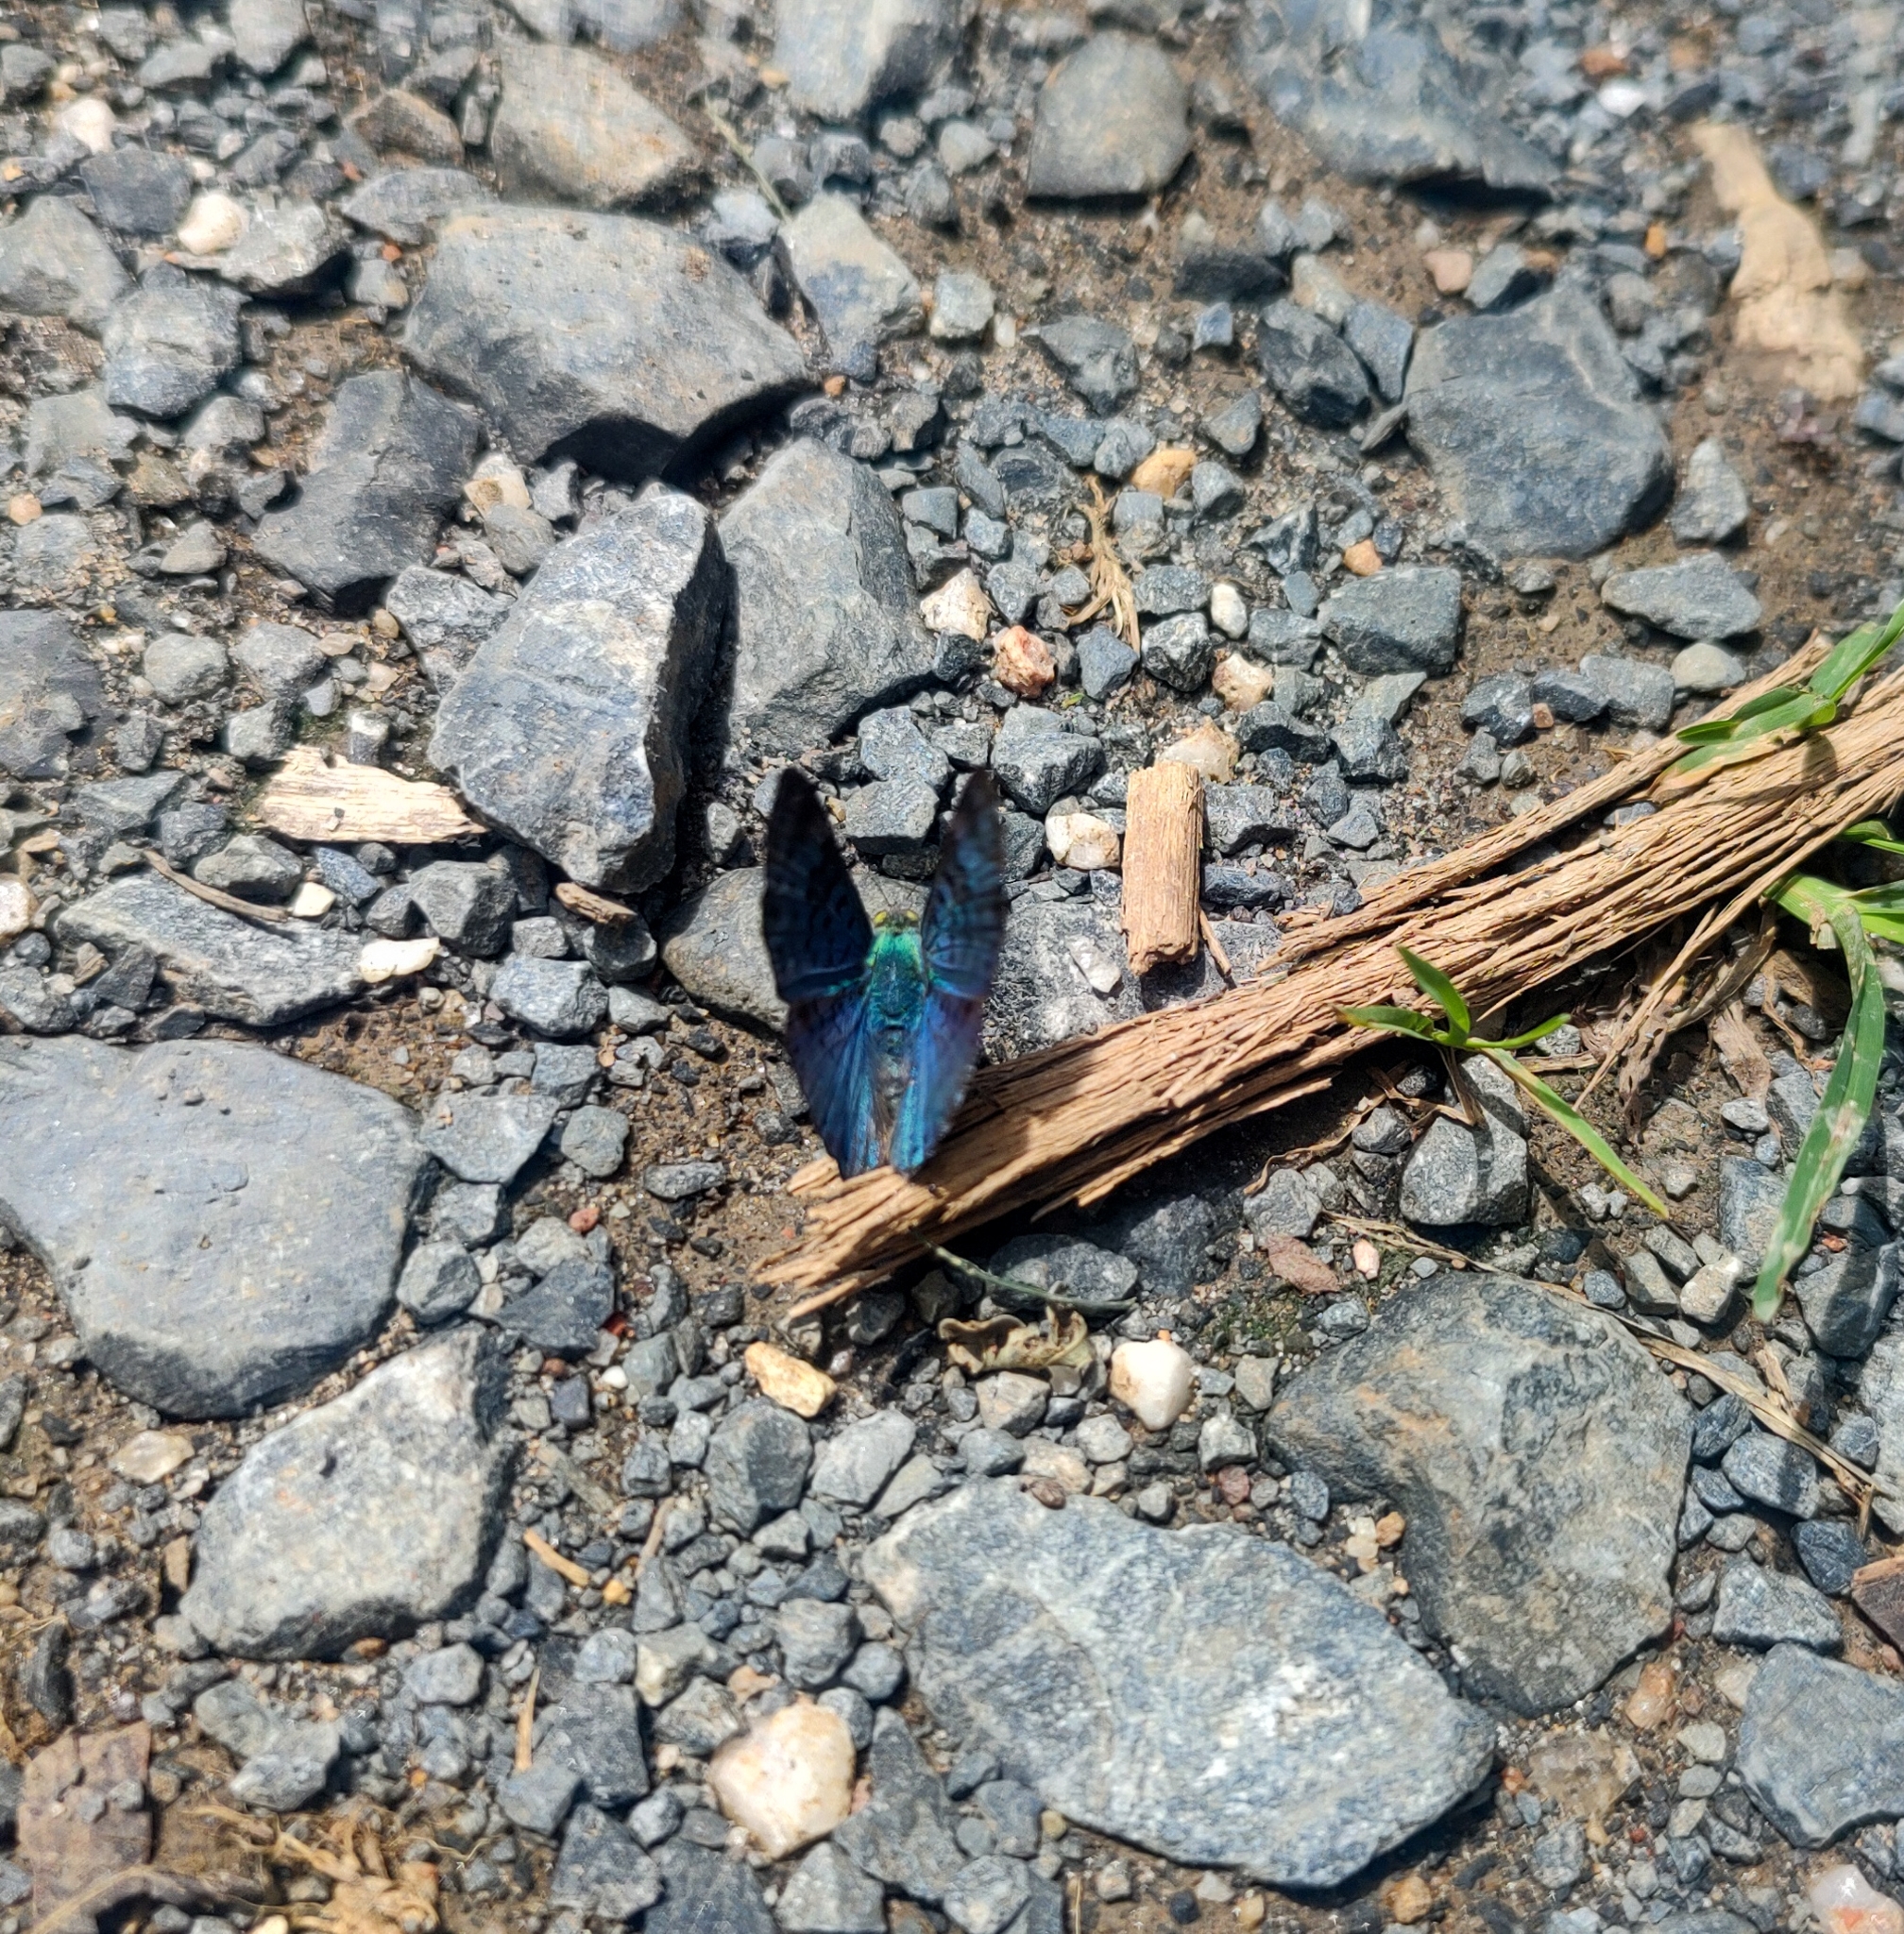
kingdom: Animalia
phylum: Arthropoda
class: Insecta
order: Lepidoptera
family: Riodinidae
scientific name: Riodinidae
